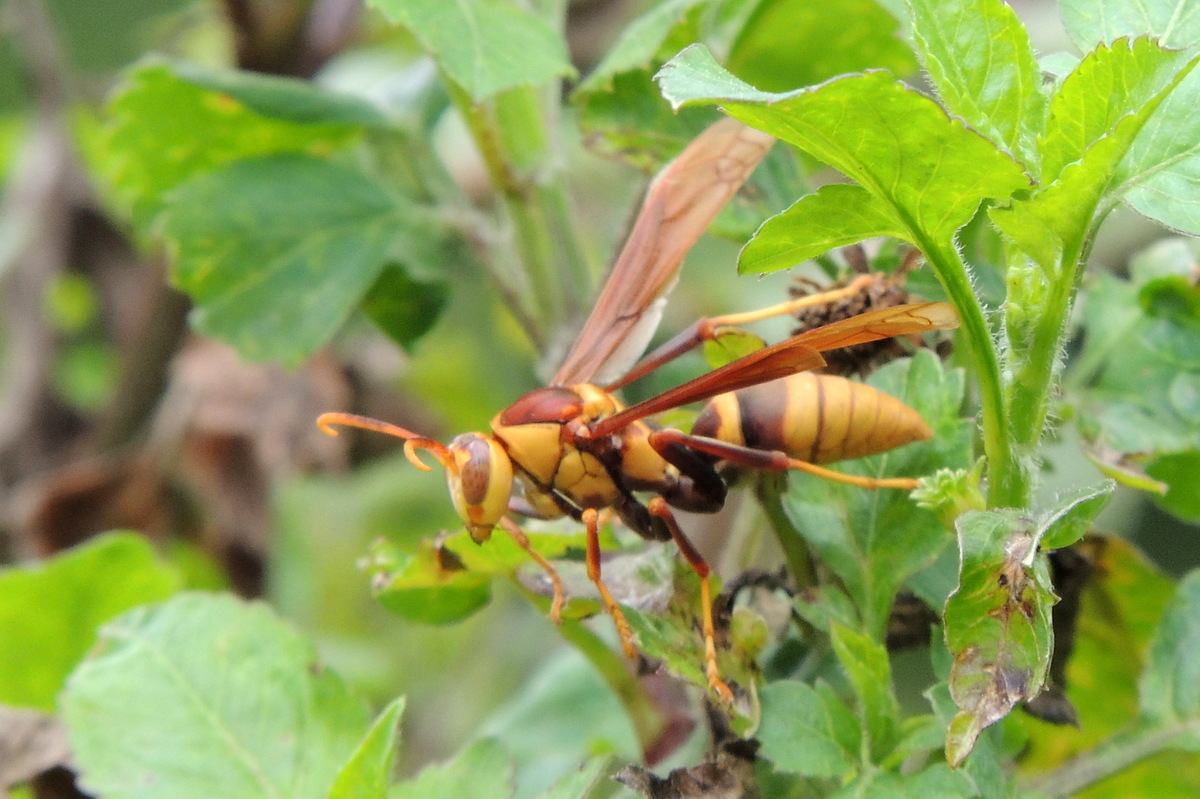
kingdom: Animalia
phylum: Arthropoda
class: Insecta
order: Hymenoptera
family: Eumenidae
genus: Polistes
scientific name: Polistes major
